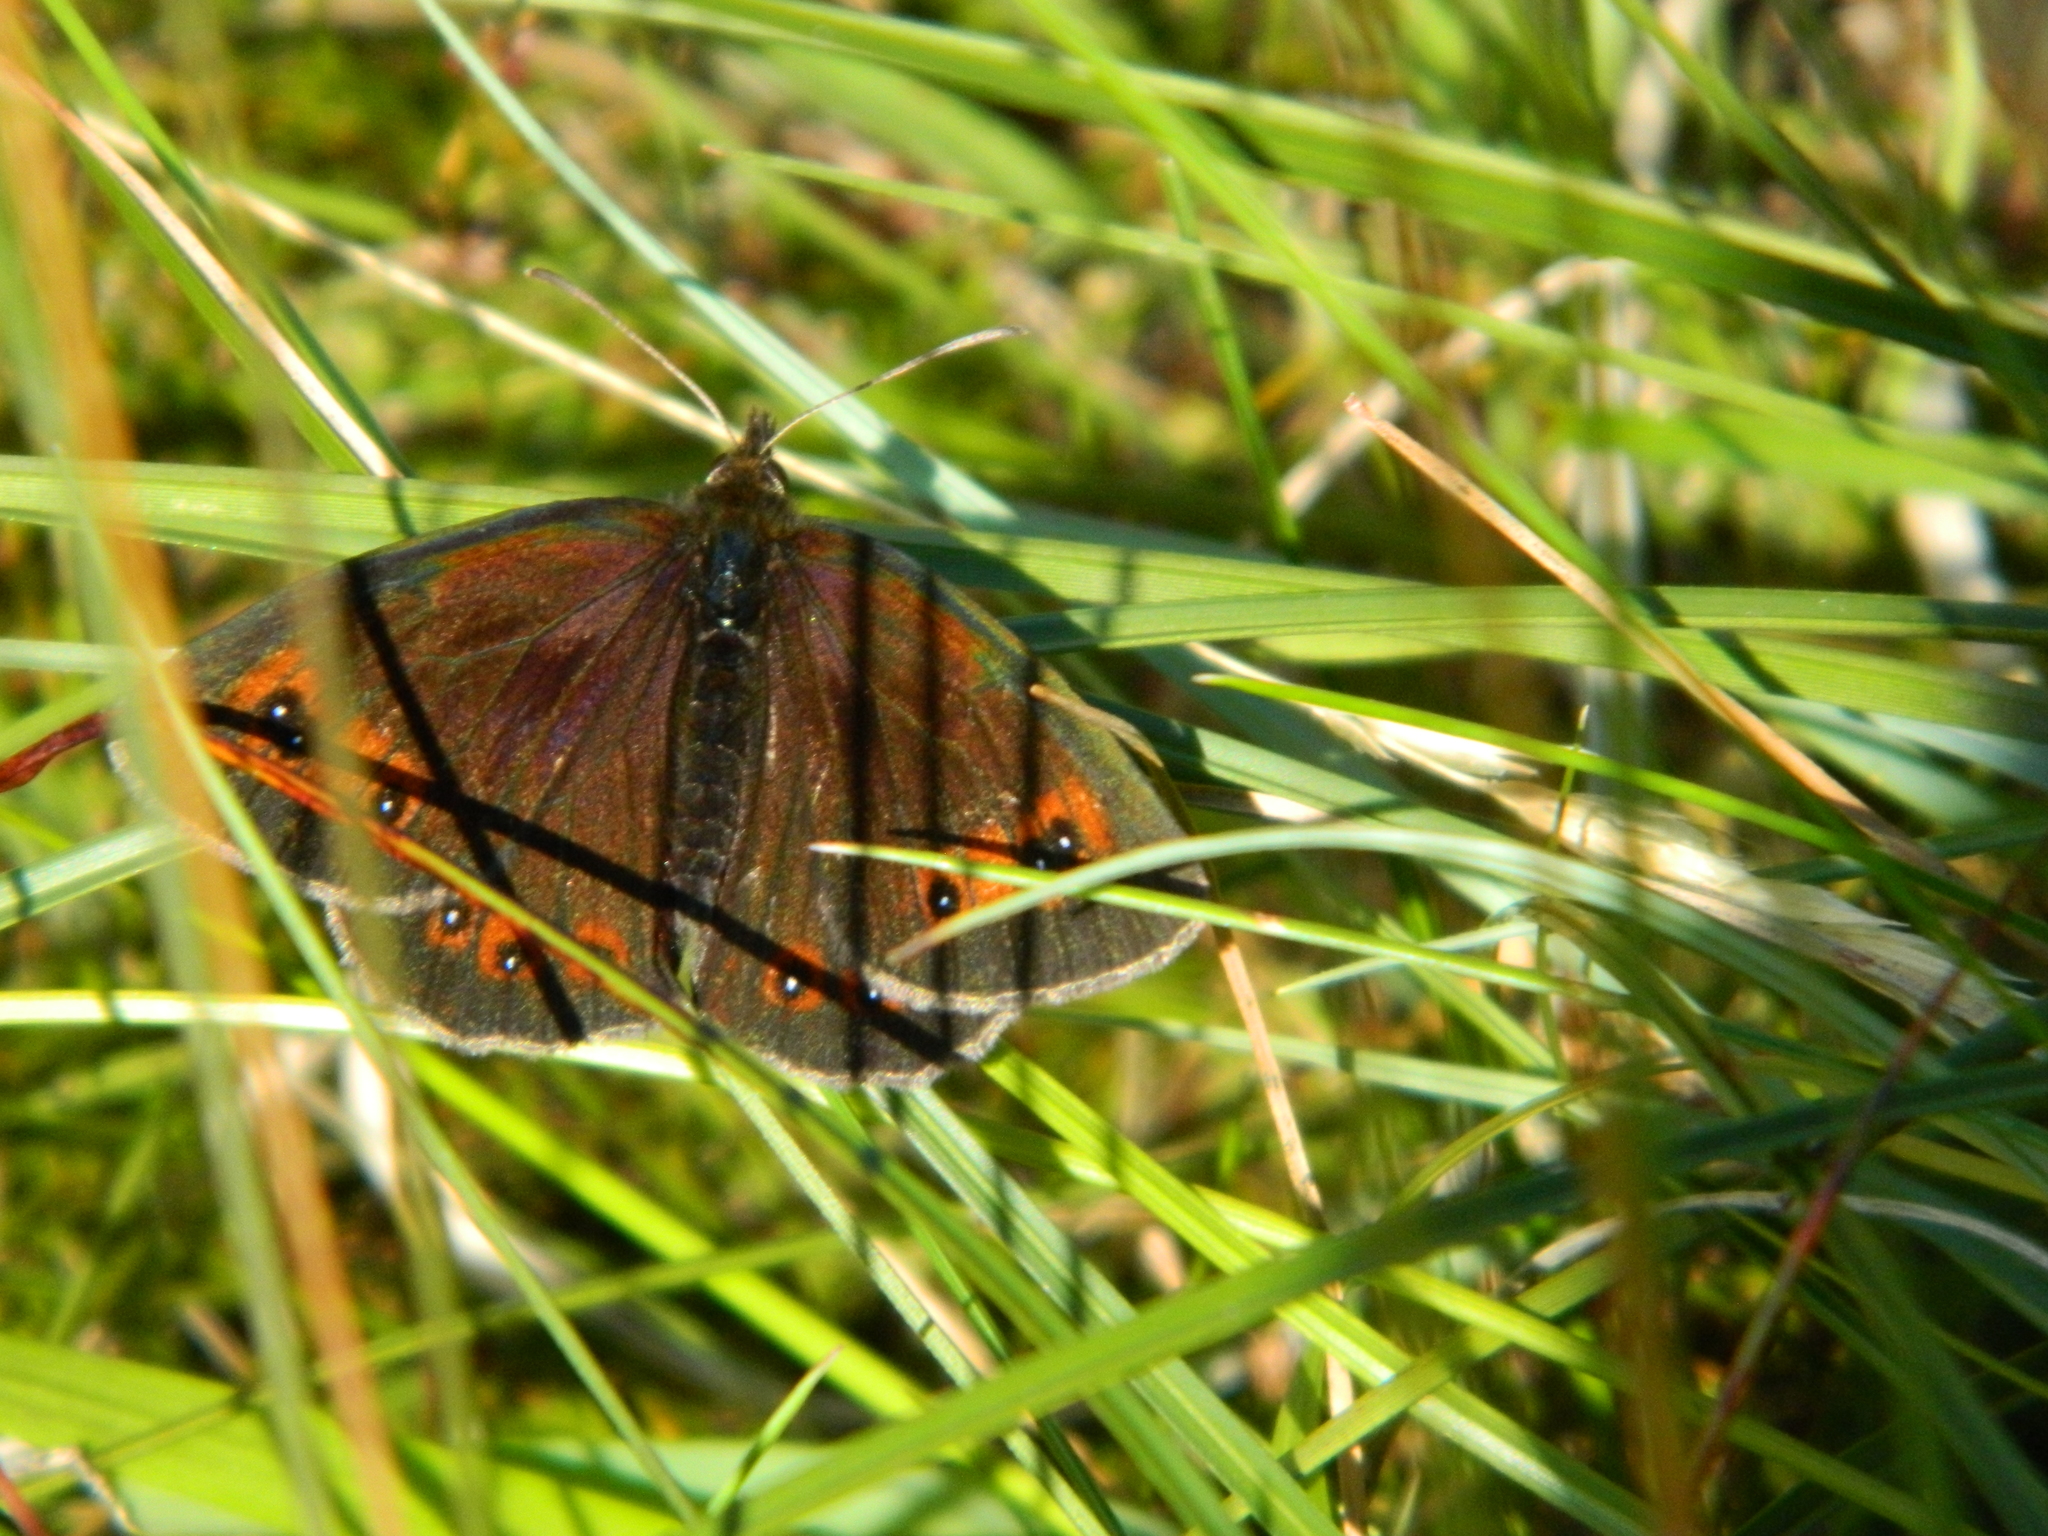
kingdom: Animalia
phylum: Arthropoda
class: Insecta
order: Lepidoptera
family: Nymphalidae
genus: Erebia
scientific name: Erebia aethiops
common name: Scotch argus
